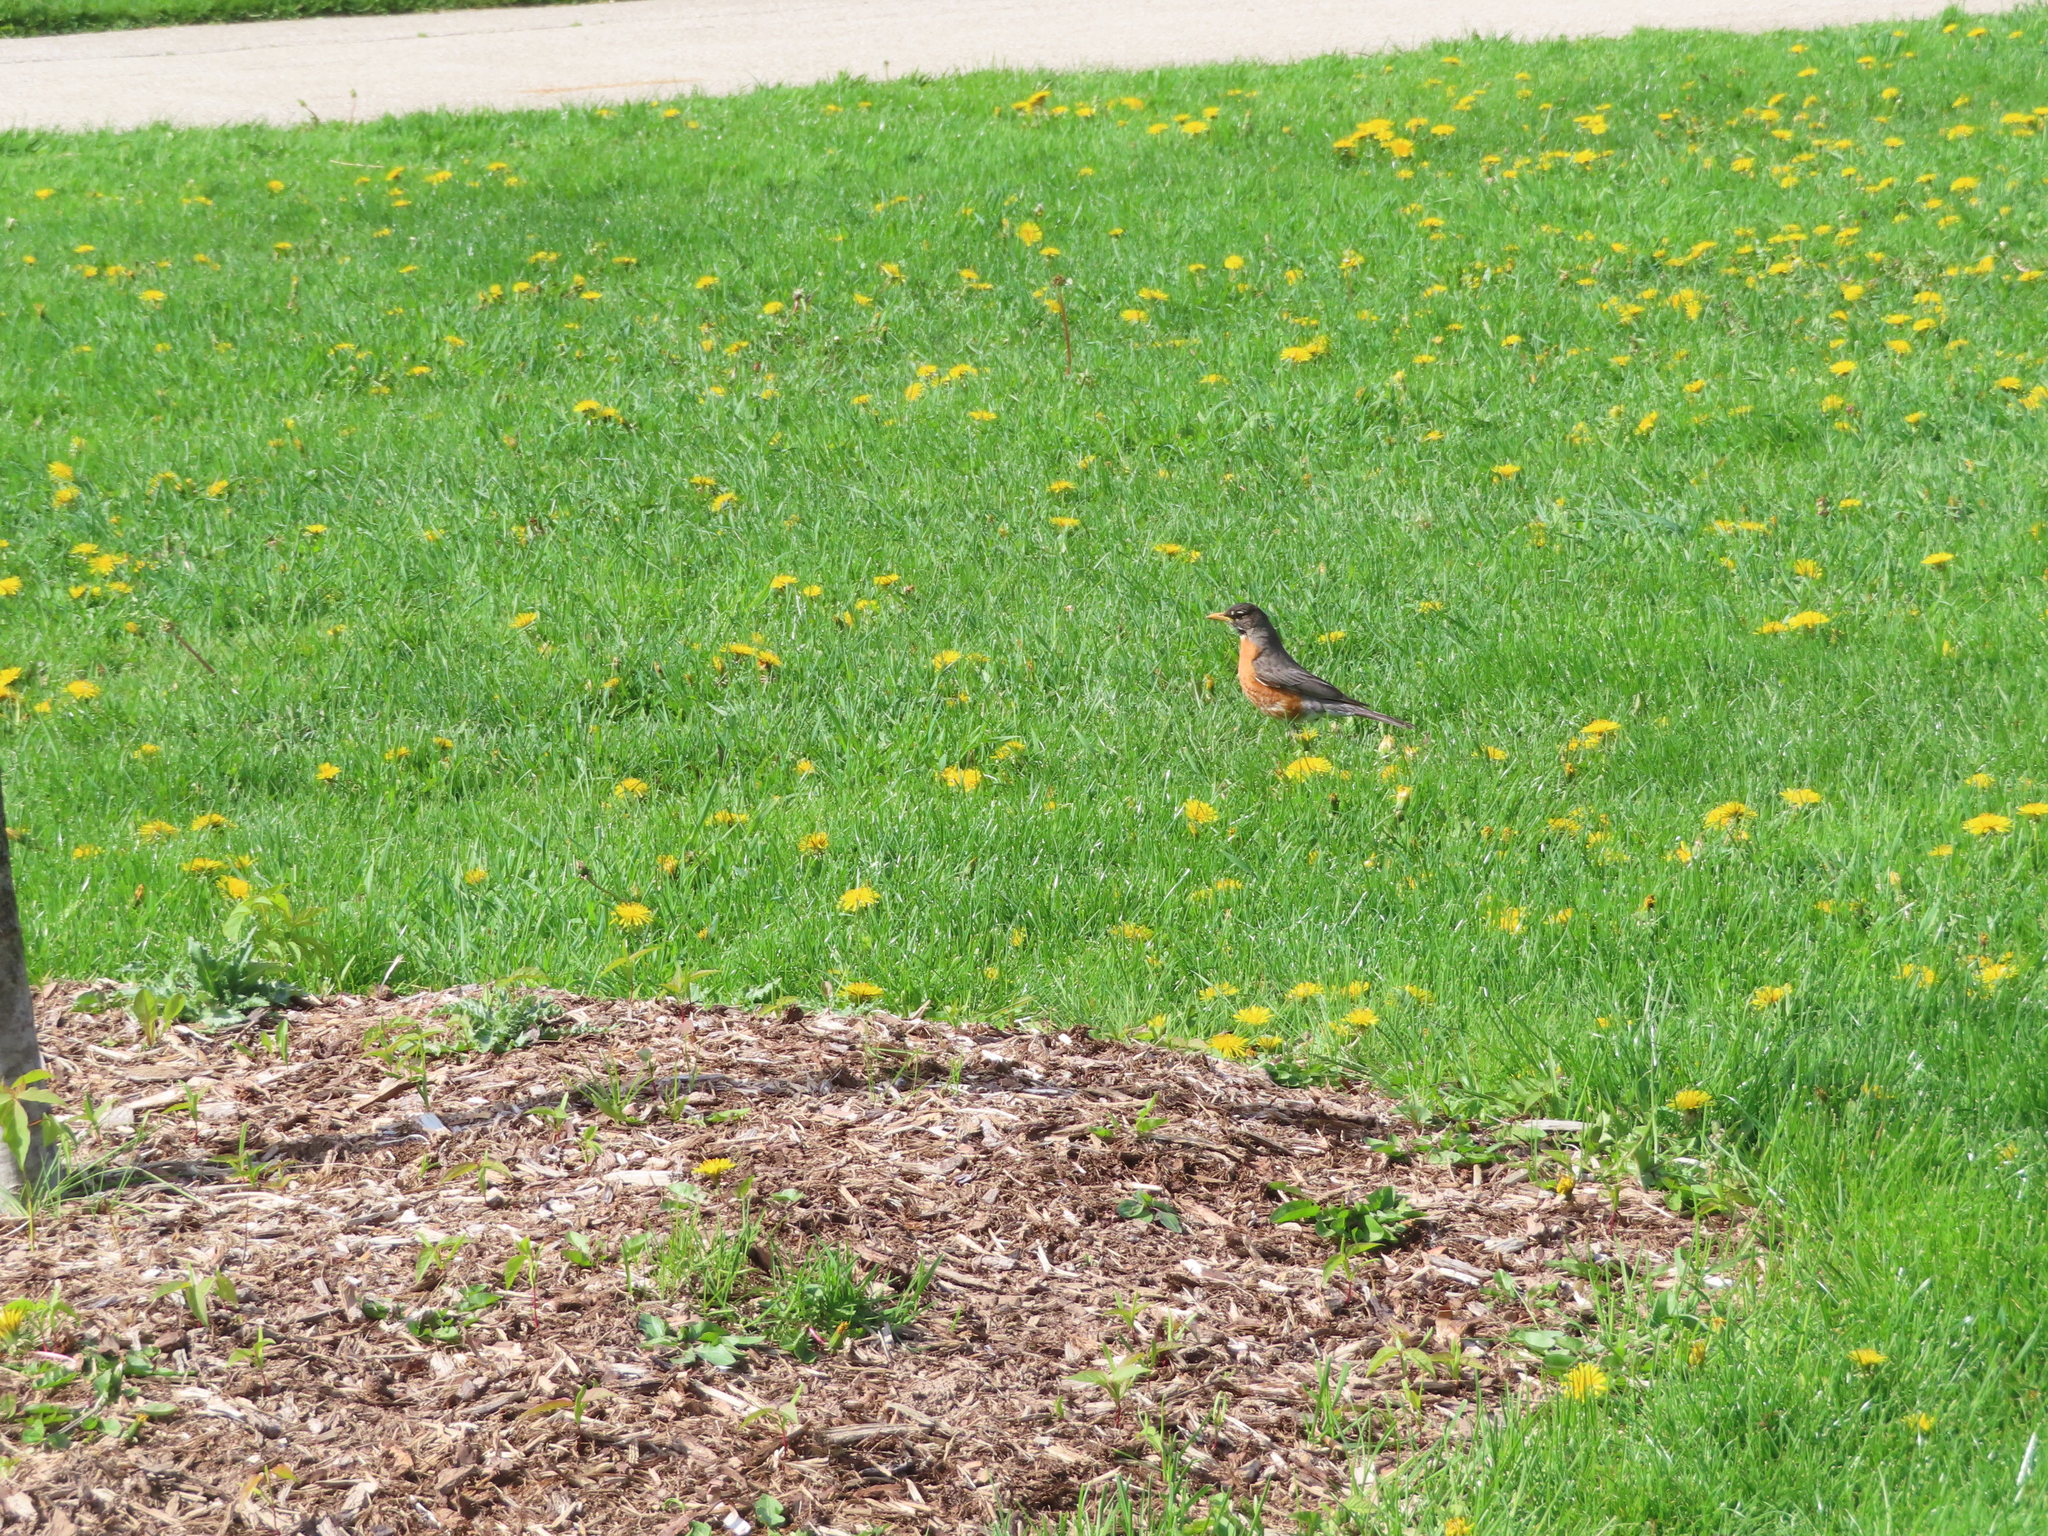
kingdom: Animalia
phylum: Chordata
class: Aves
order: Passeriformes
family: Turdidae
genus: Turdus
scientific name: Turdus migratorius
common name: American robin
